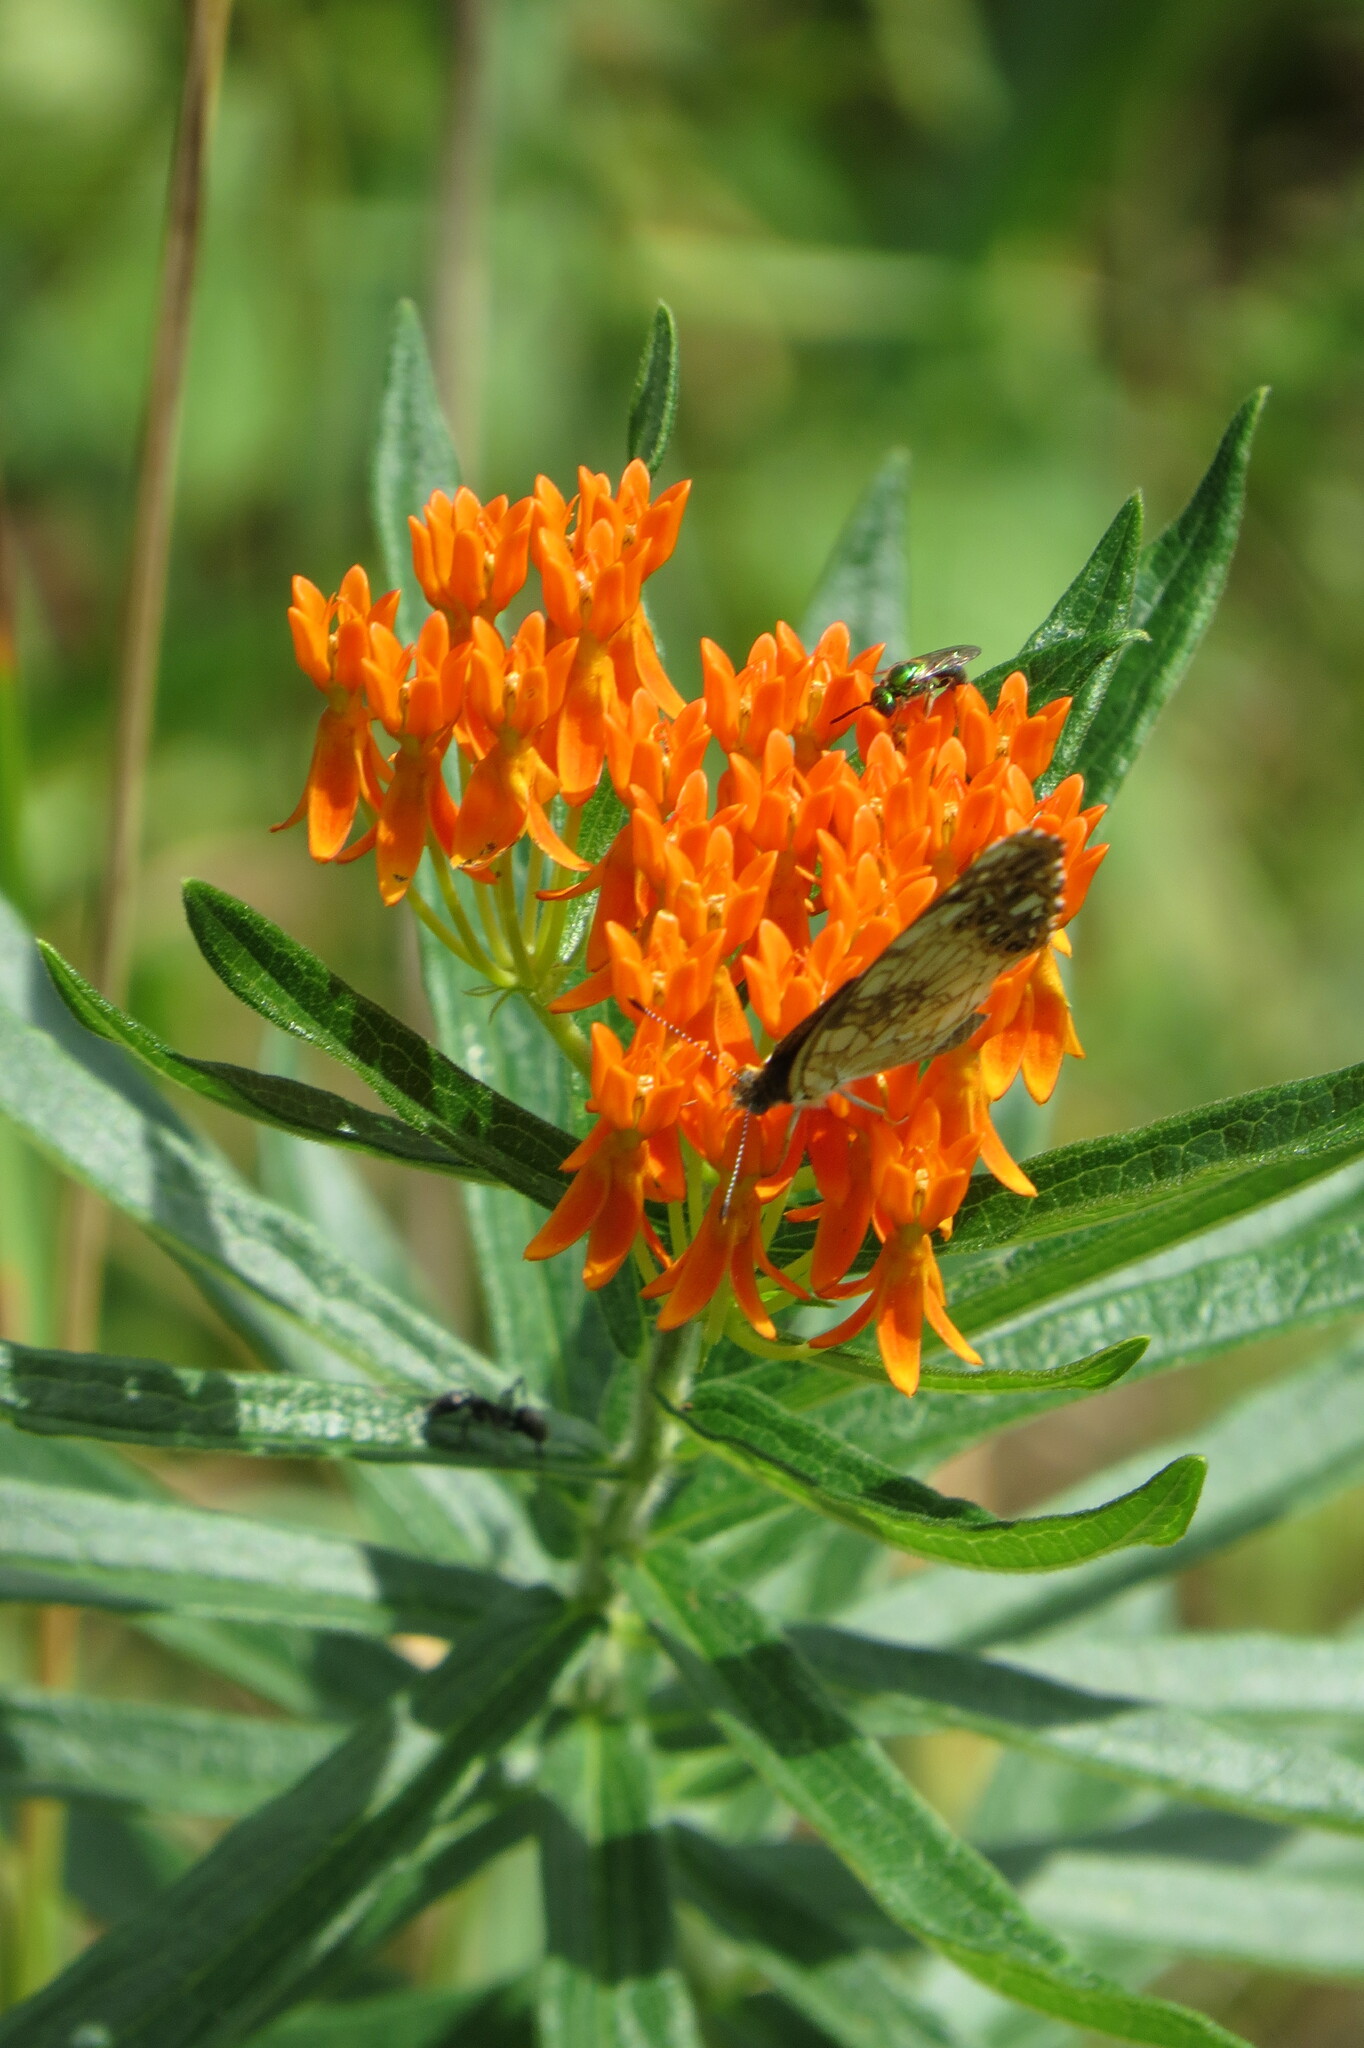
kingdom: Plantae
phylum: Tracheophyta
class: Magnoliopsida
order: Gentianales
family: Apocynaceae
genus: Asclepias
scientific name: Asclepias tuberosa
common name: Butterfly milkweed
